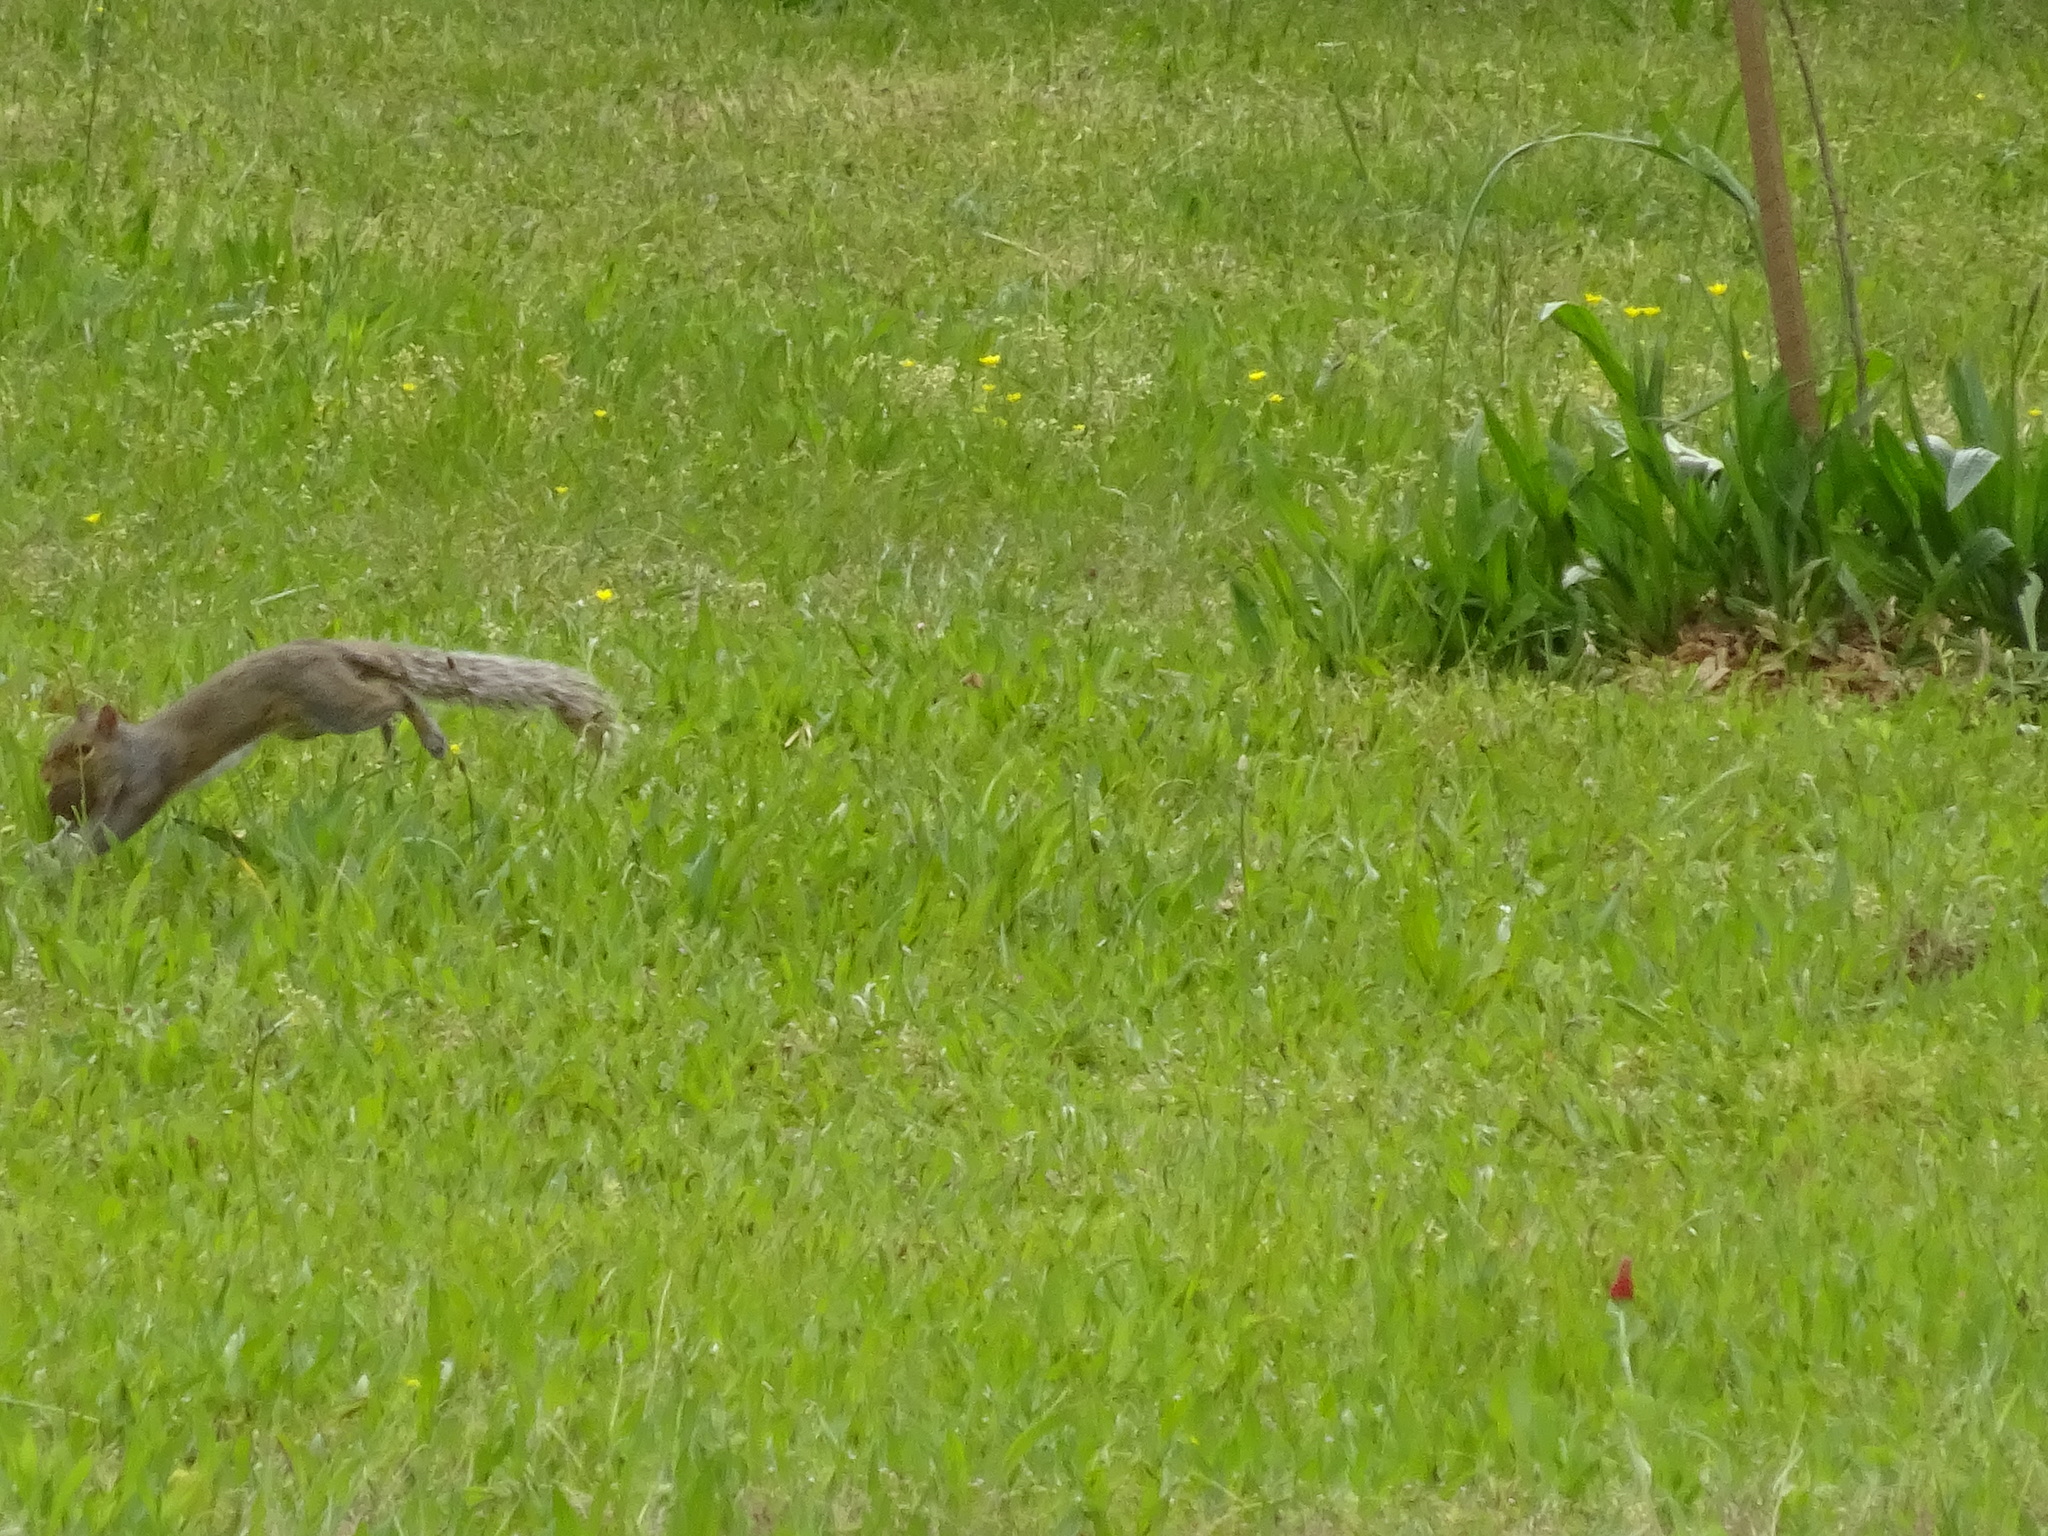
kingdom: Animalia
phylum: Chordata
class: Mammalia
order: Rodentia
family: Sciuridae
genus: Sciurus
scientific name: Sciurus carolinensis
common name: Eastern gray squirrel
